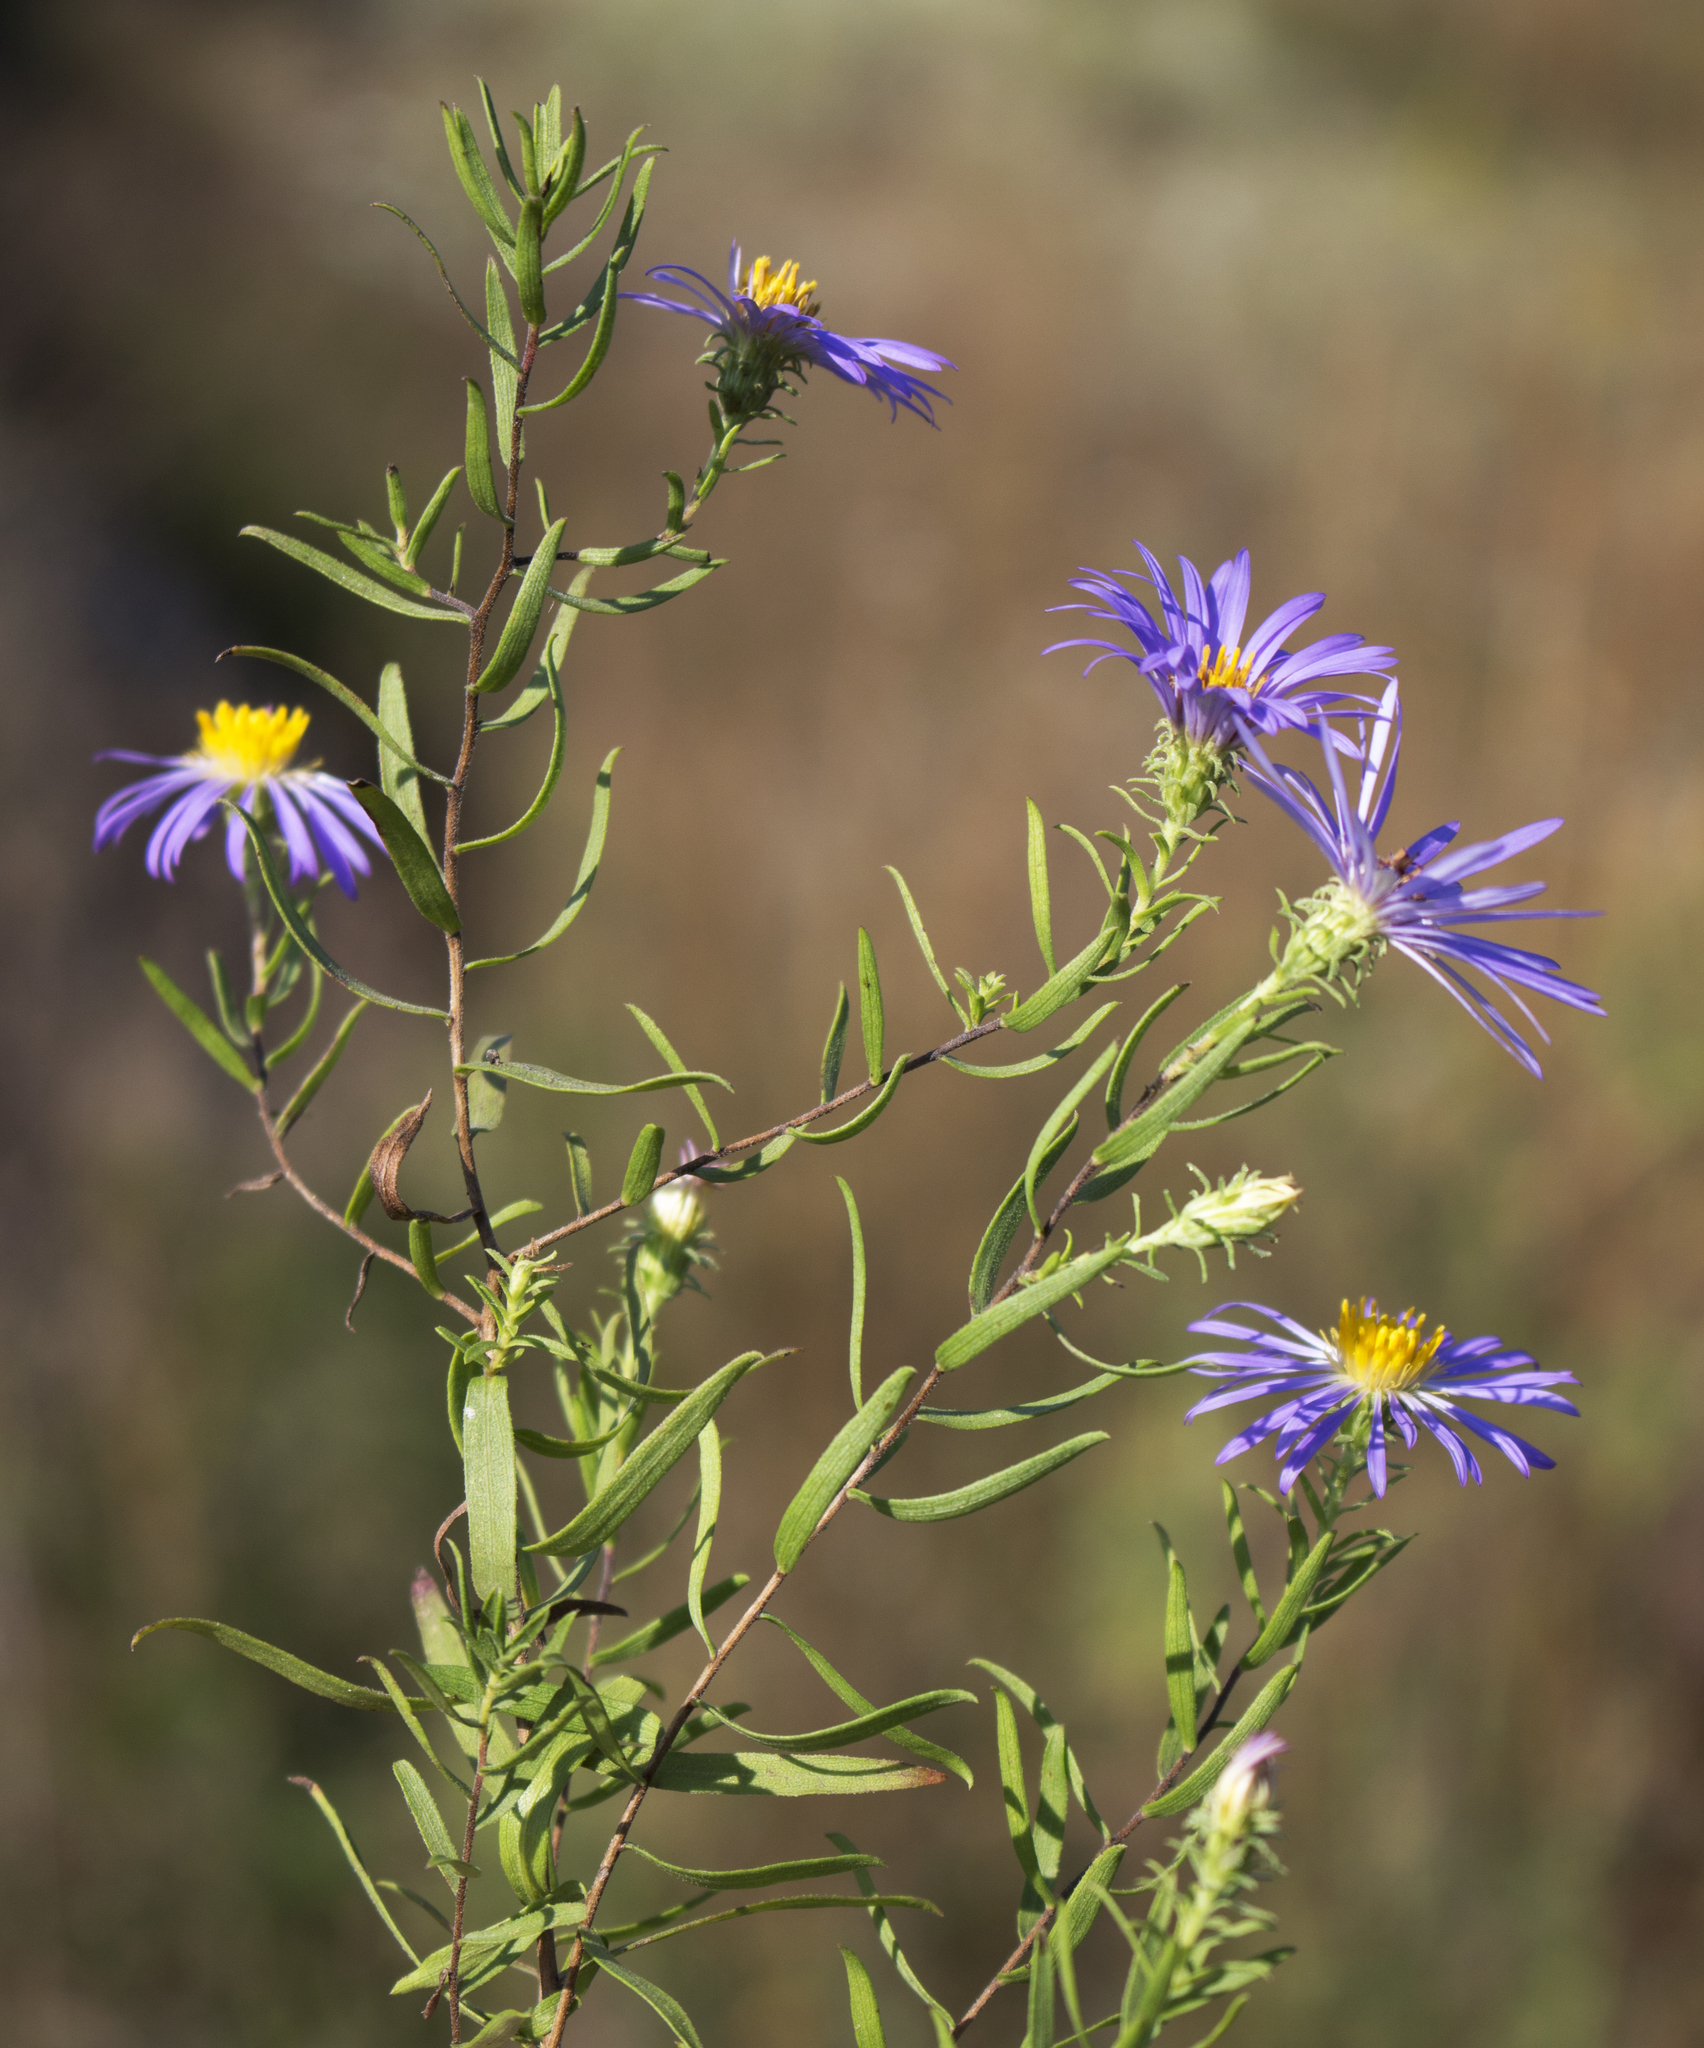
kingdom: Plantae
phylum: Tracheophyta
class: Magnoliopsida
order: Asterales
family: Asteraceae
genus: Symphyotrichum
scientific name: Symphyotrichum oblongifolium
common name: Aromatic aster
